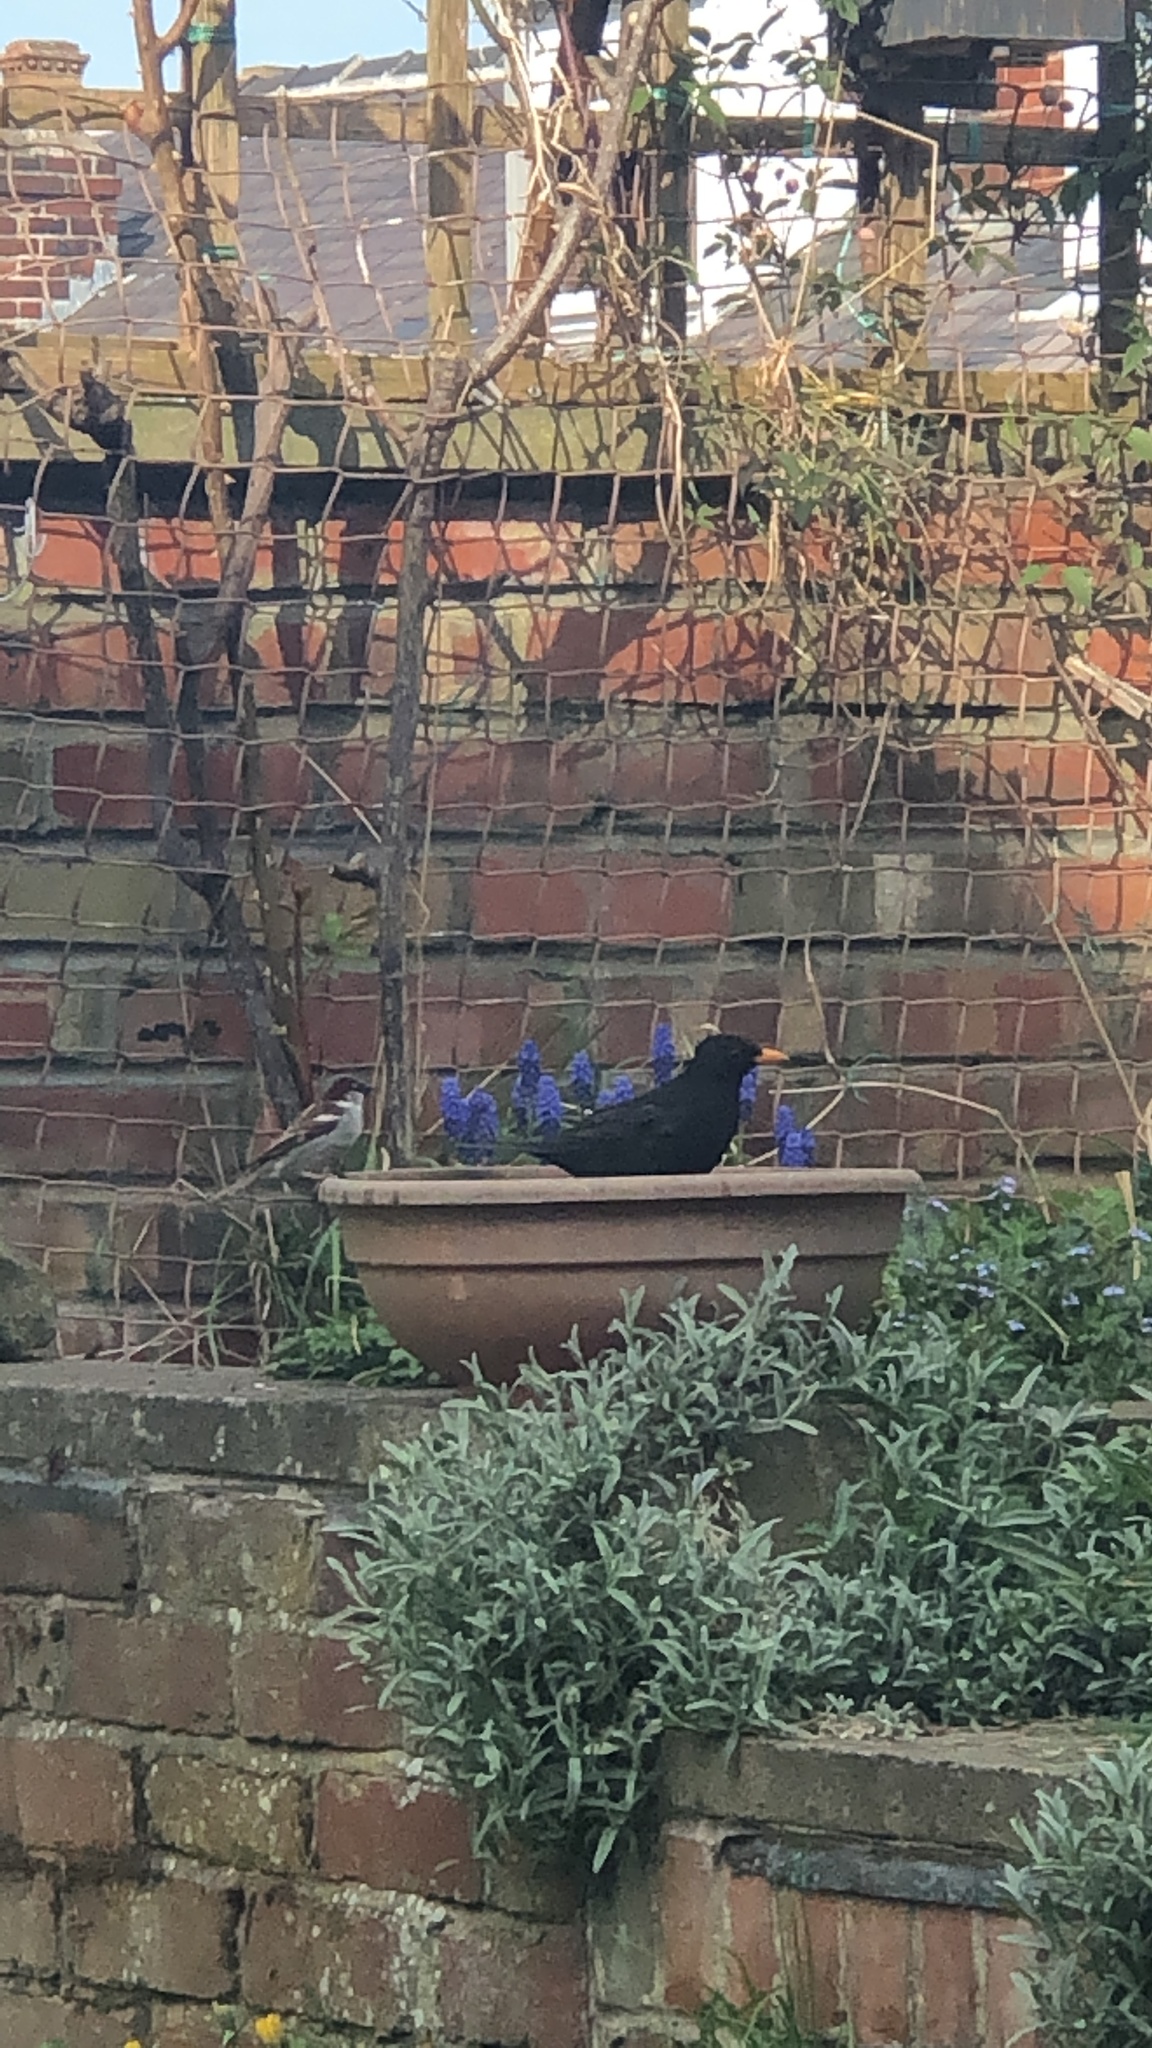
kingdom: Animalia
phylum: Chordata
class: Aves
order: Passeriformes
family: Passeridae
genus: Passer
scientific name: Passer domesticus
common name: House sparrow
